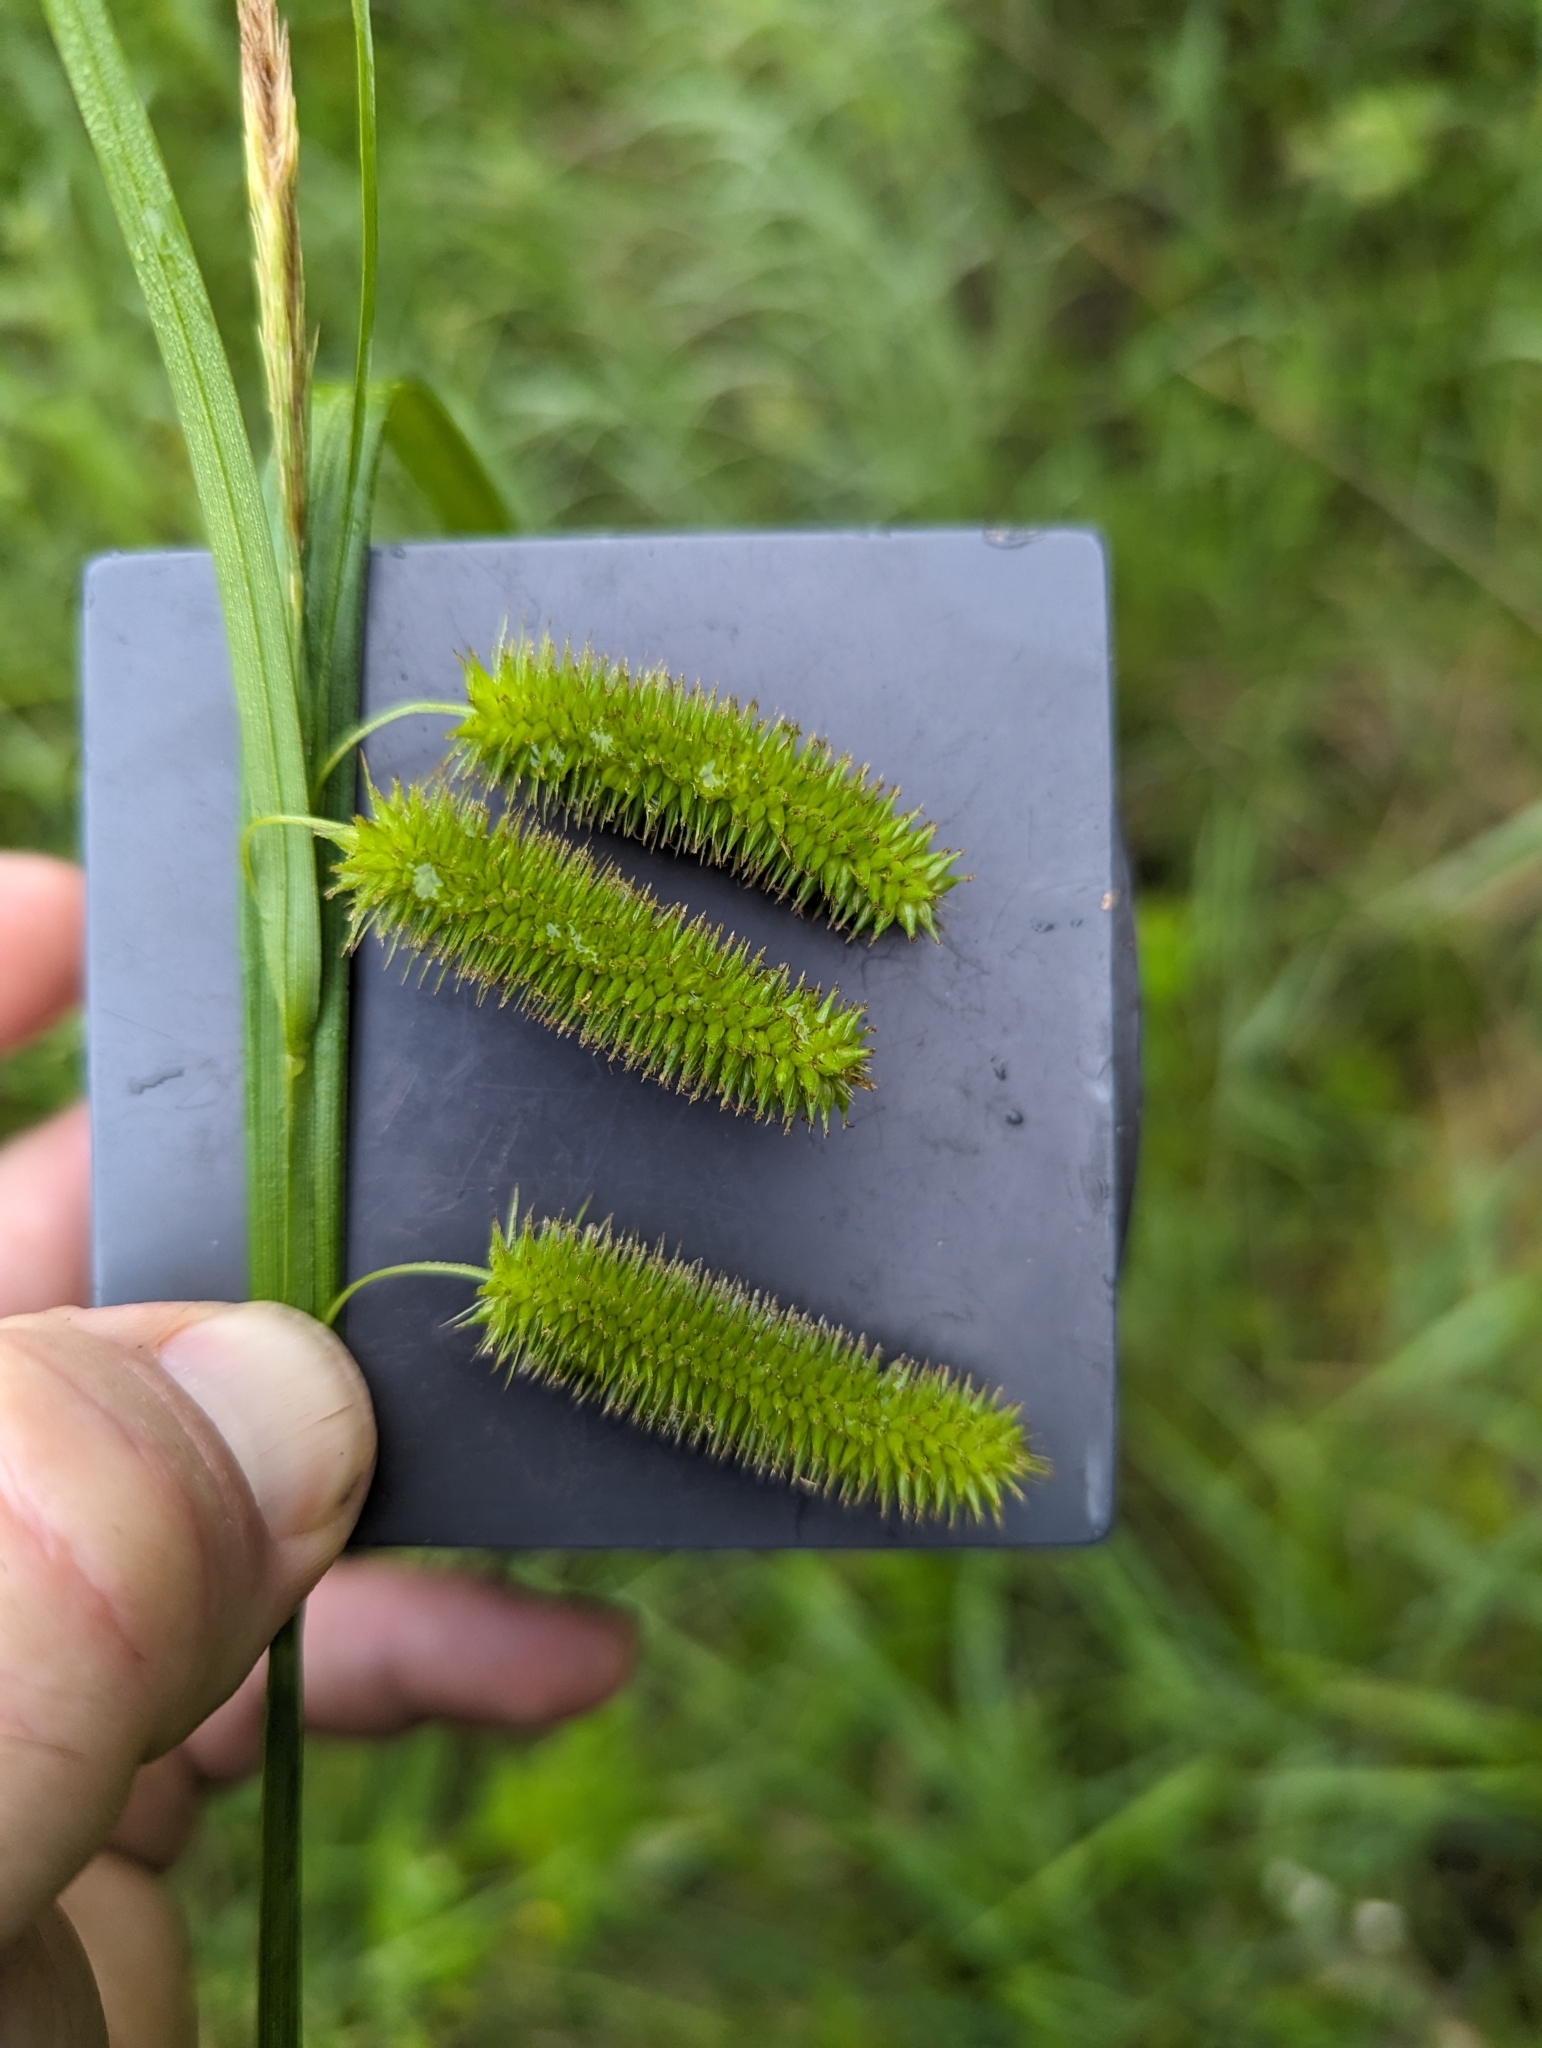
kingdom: Plantae
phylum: Tracheophyta
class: Liliopsida
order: Poales
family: Cyperaceae
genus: Carex
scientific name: Carex pseudocyperus
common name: Cyperus sedge
